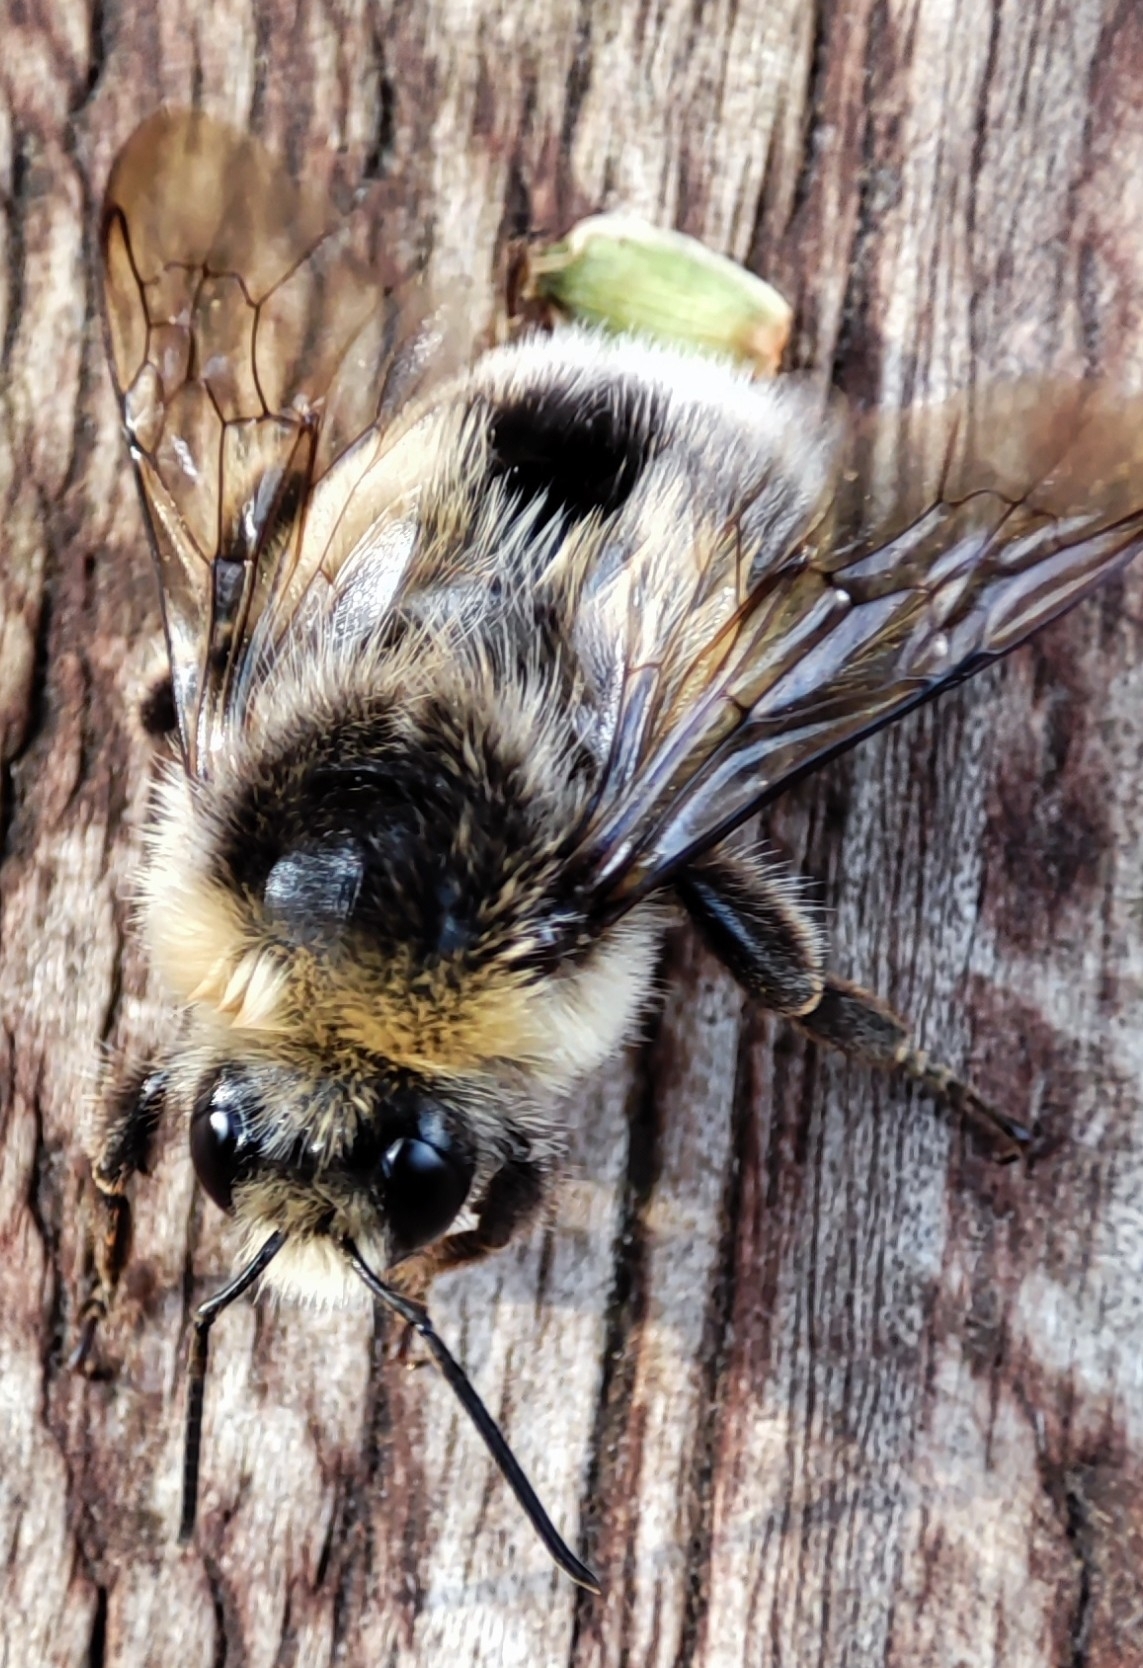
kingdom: Animalia
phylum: Arthropoda
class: Insecta
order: Hymenoptera
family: Apidae
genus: Bombus
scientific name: Bombus lucorum
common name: White-tailed bumblebee
